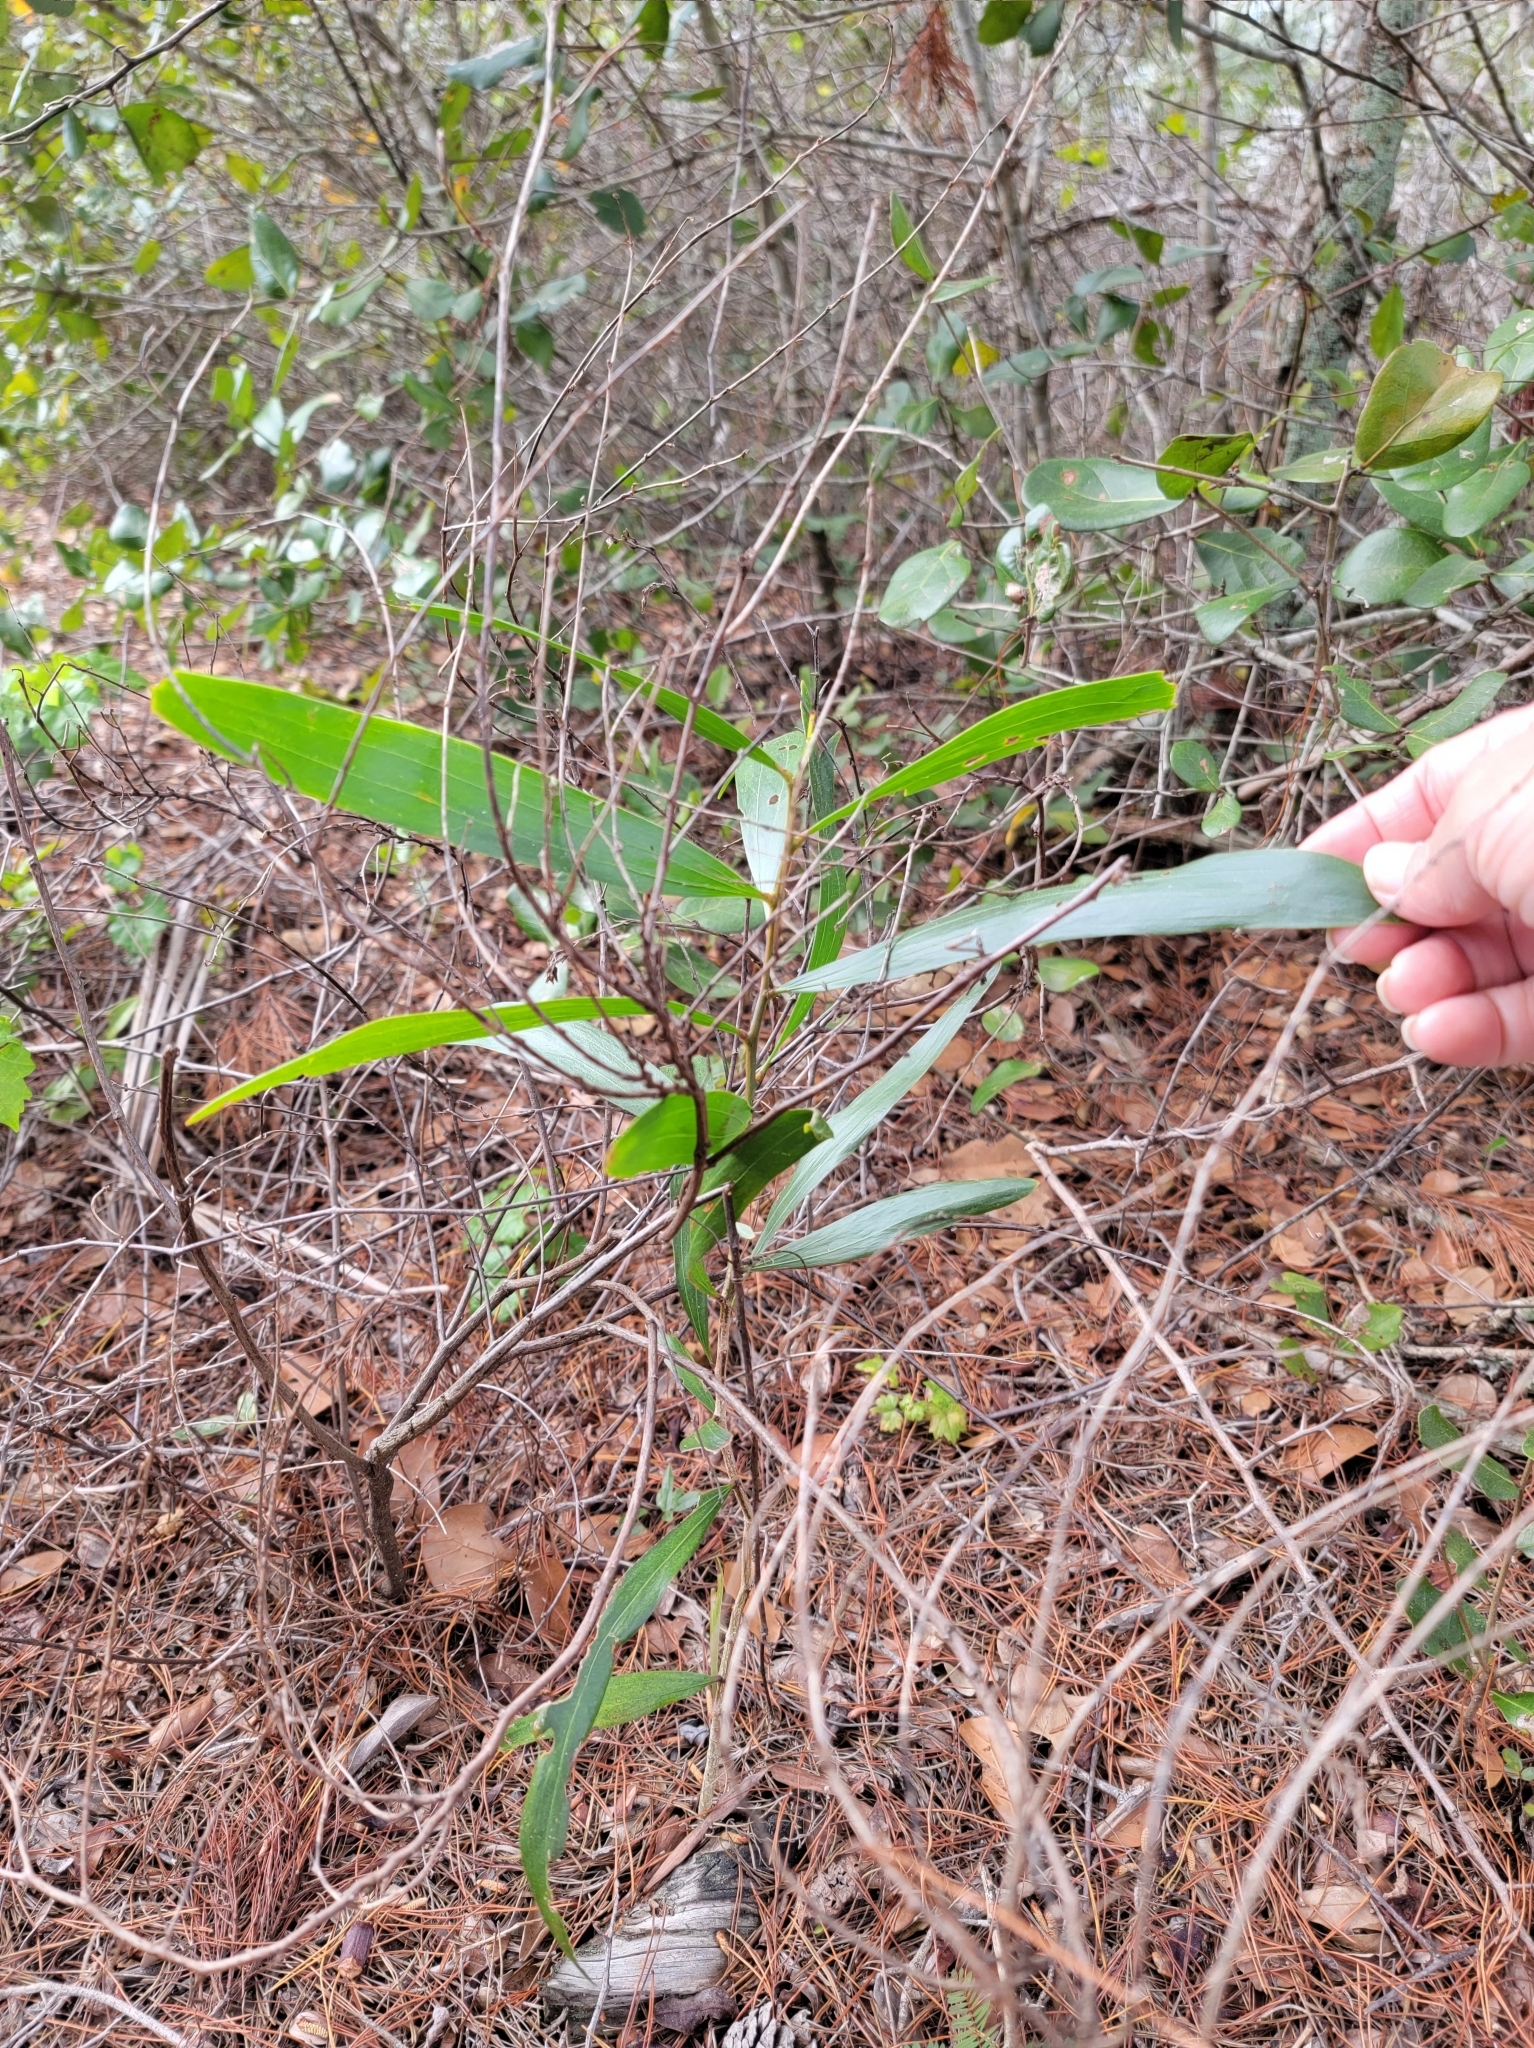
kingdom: Plantae
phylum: Tracheophyta
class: Magnoliopsida
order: Fabales
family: Fabaceae
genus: Acacia
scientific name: Acacia auriculiformis
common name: Earleaf acacia
